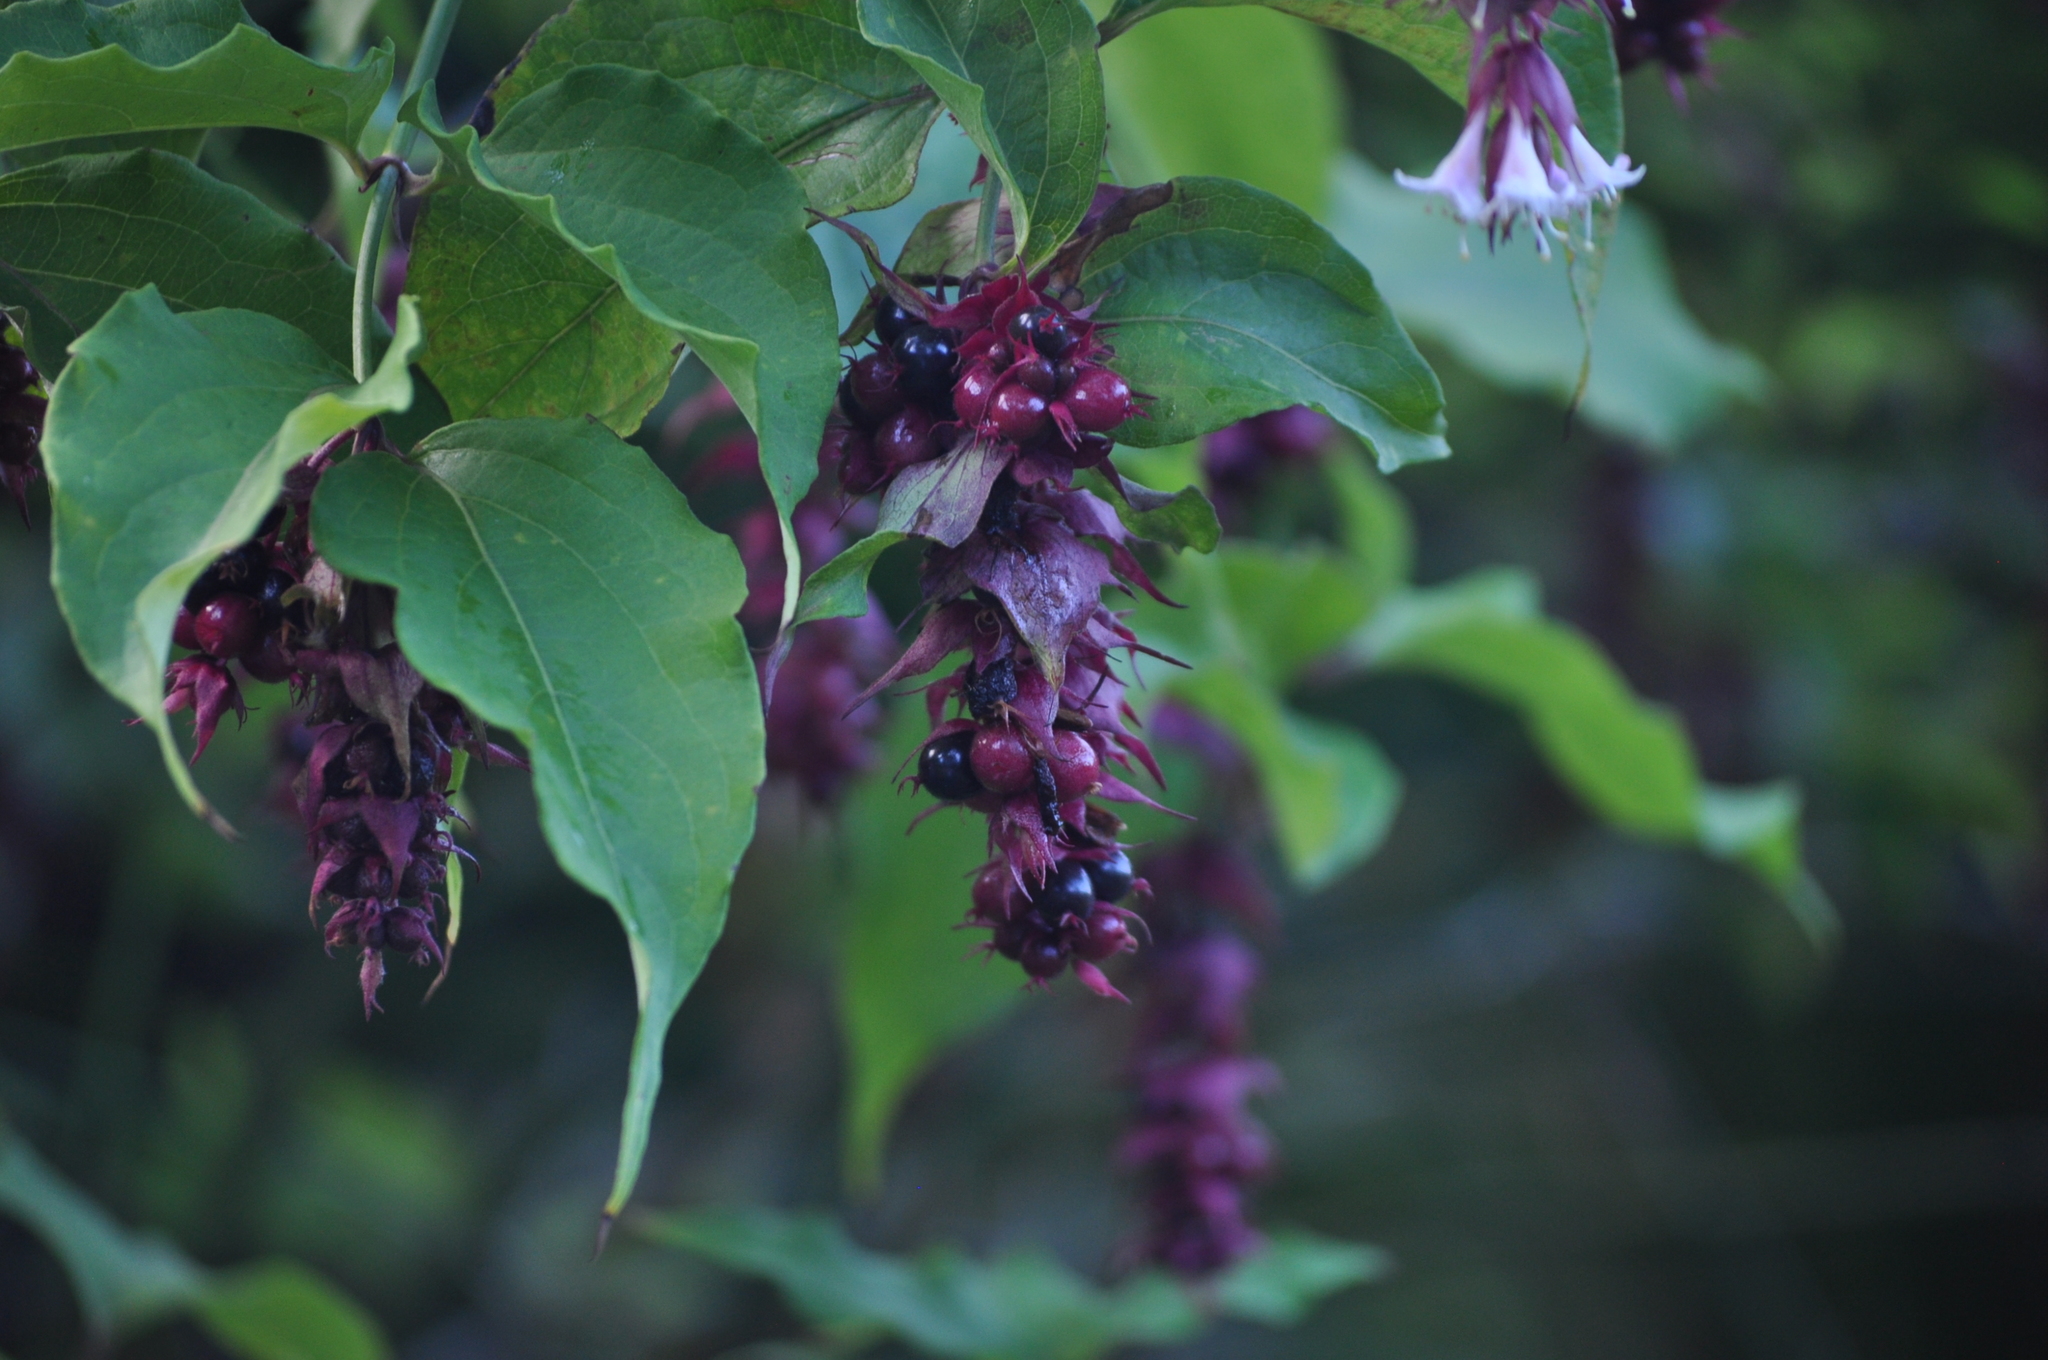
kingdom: Plantae
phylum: Tracheophyta
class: Magnoliopsida
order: Dipsacales
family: Caprifoliaceae
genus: Leycesteria
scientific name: Leycesteria formosa
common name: Himalayan honeysuckle
